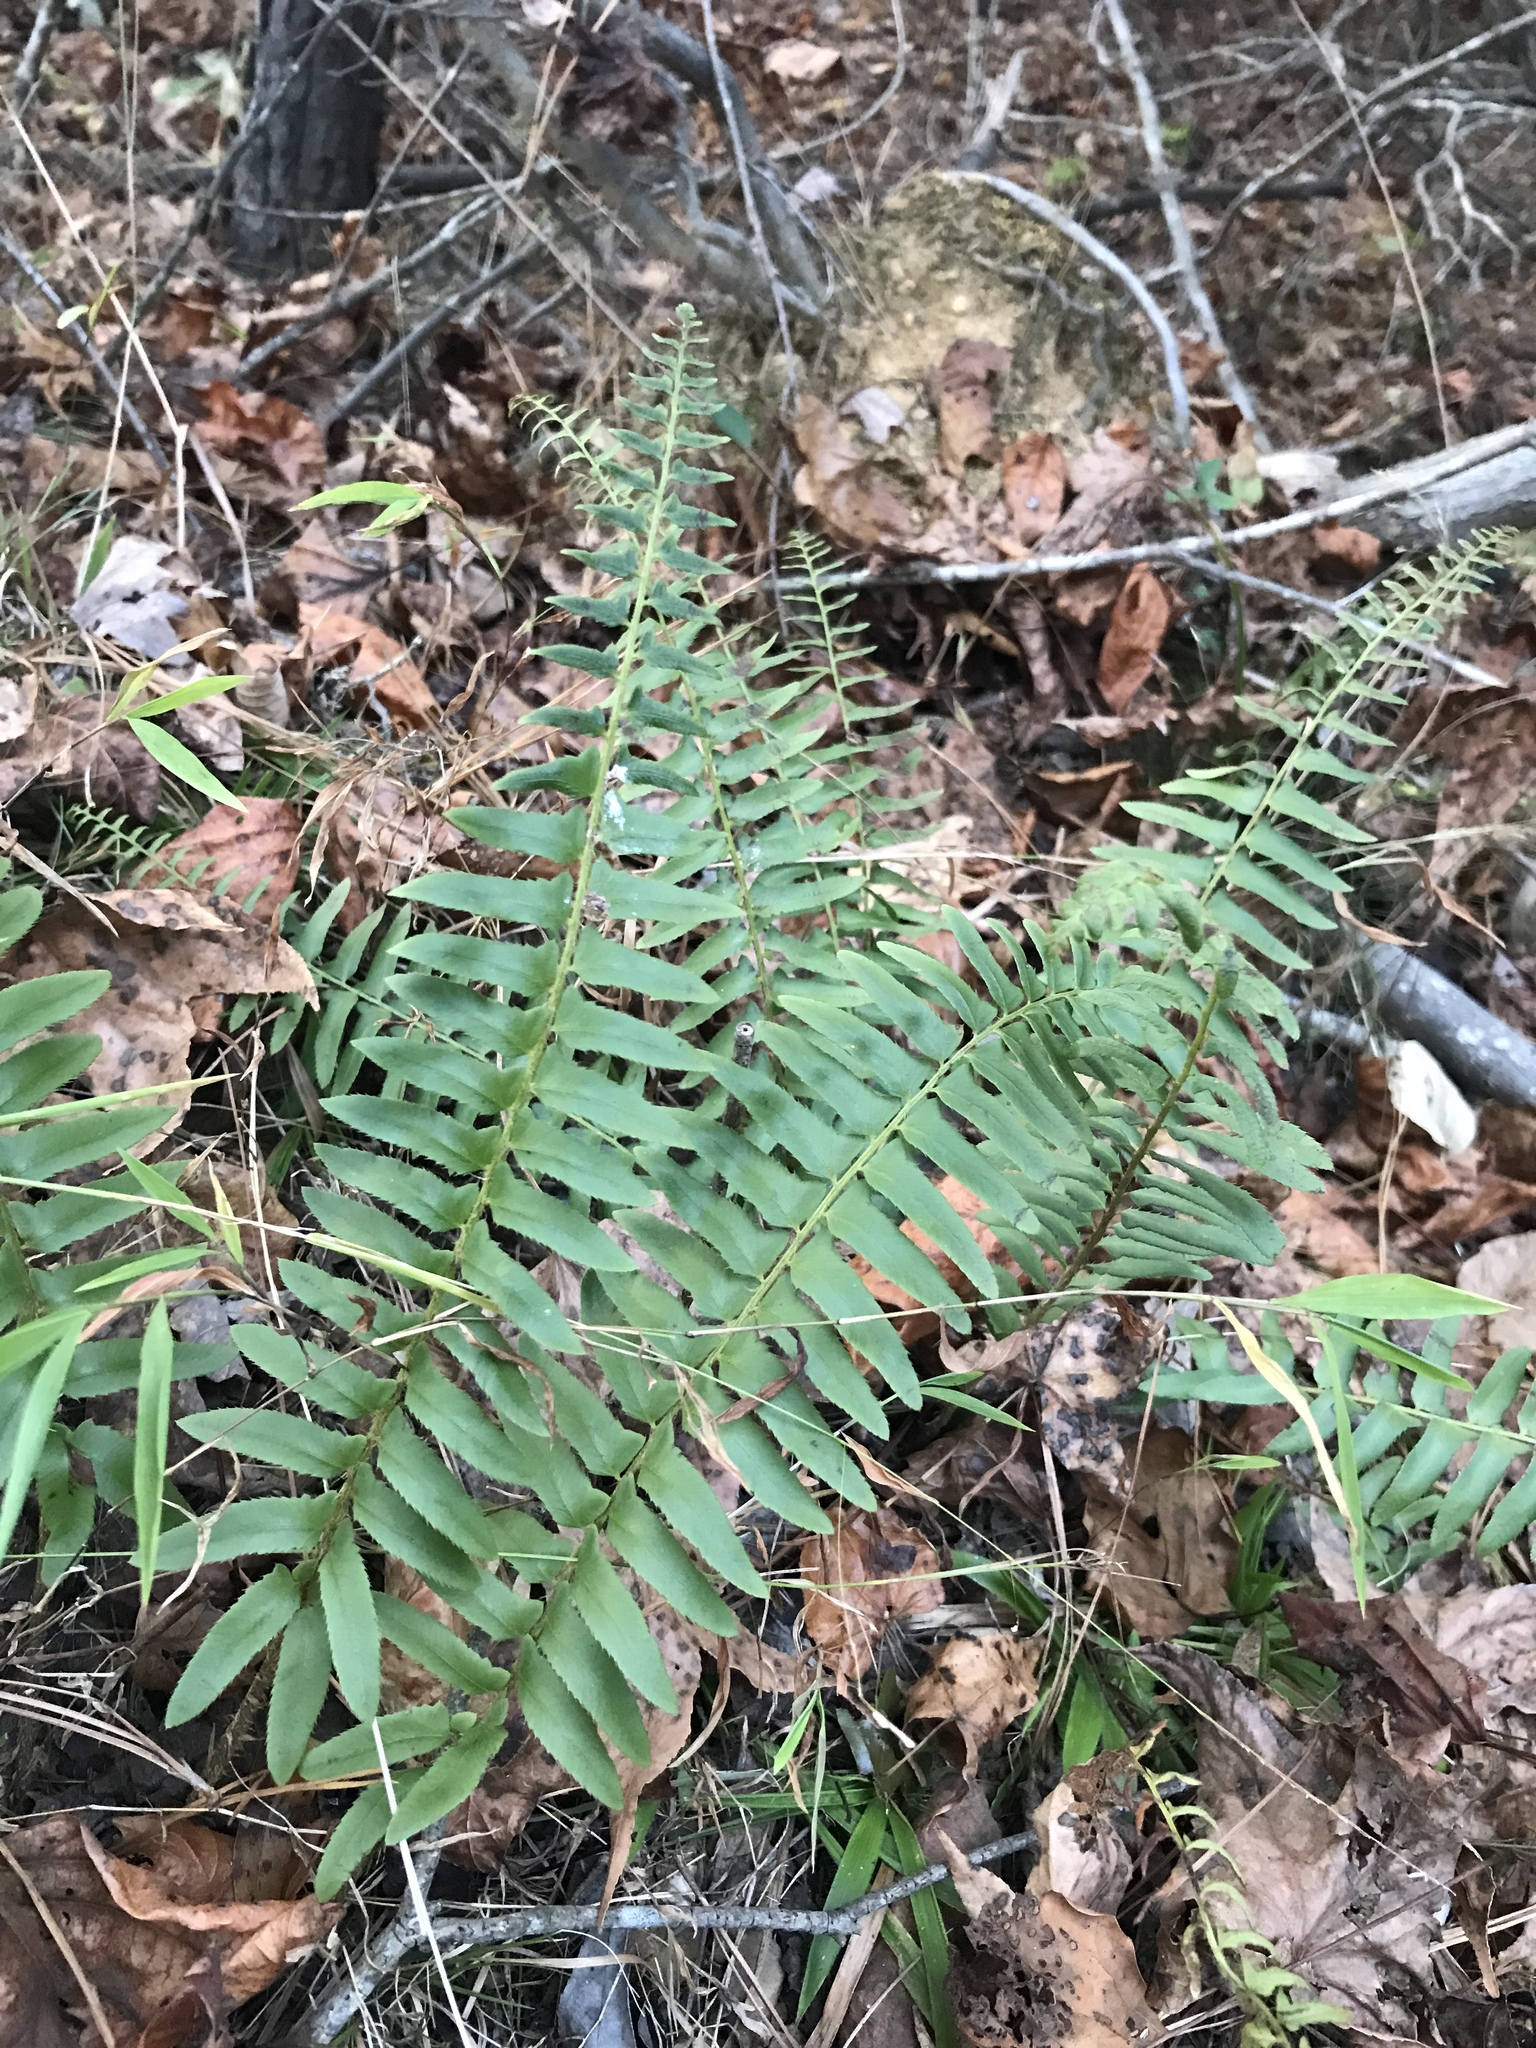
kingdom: Plantae
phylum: Tracheophyta
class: Polypodiopsida
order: Polypodiales
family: Dryopteridaceae
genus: Polystichum
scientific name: Polystichum acrostichoides
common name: Christmas fern
